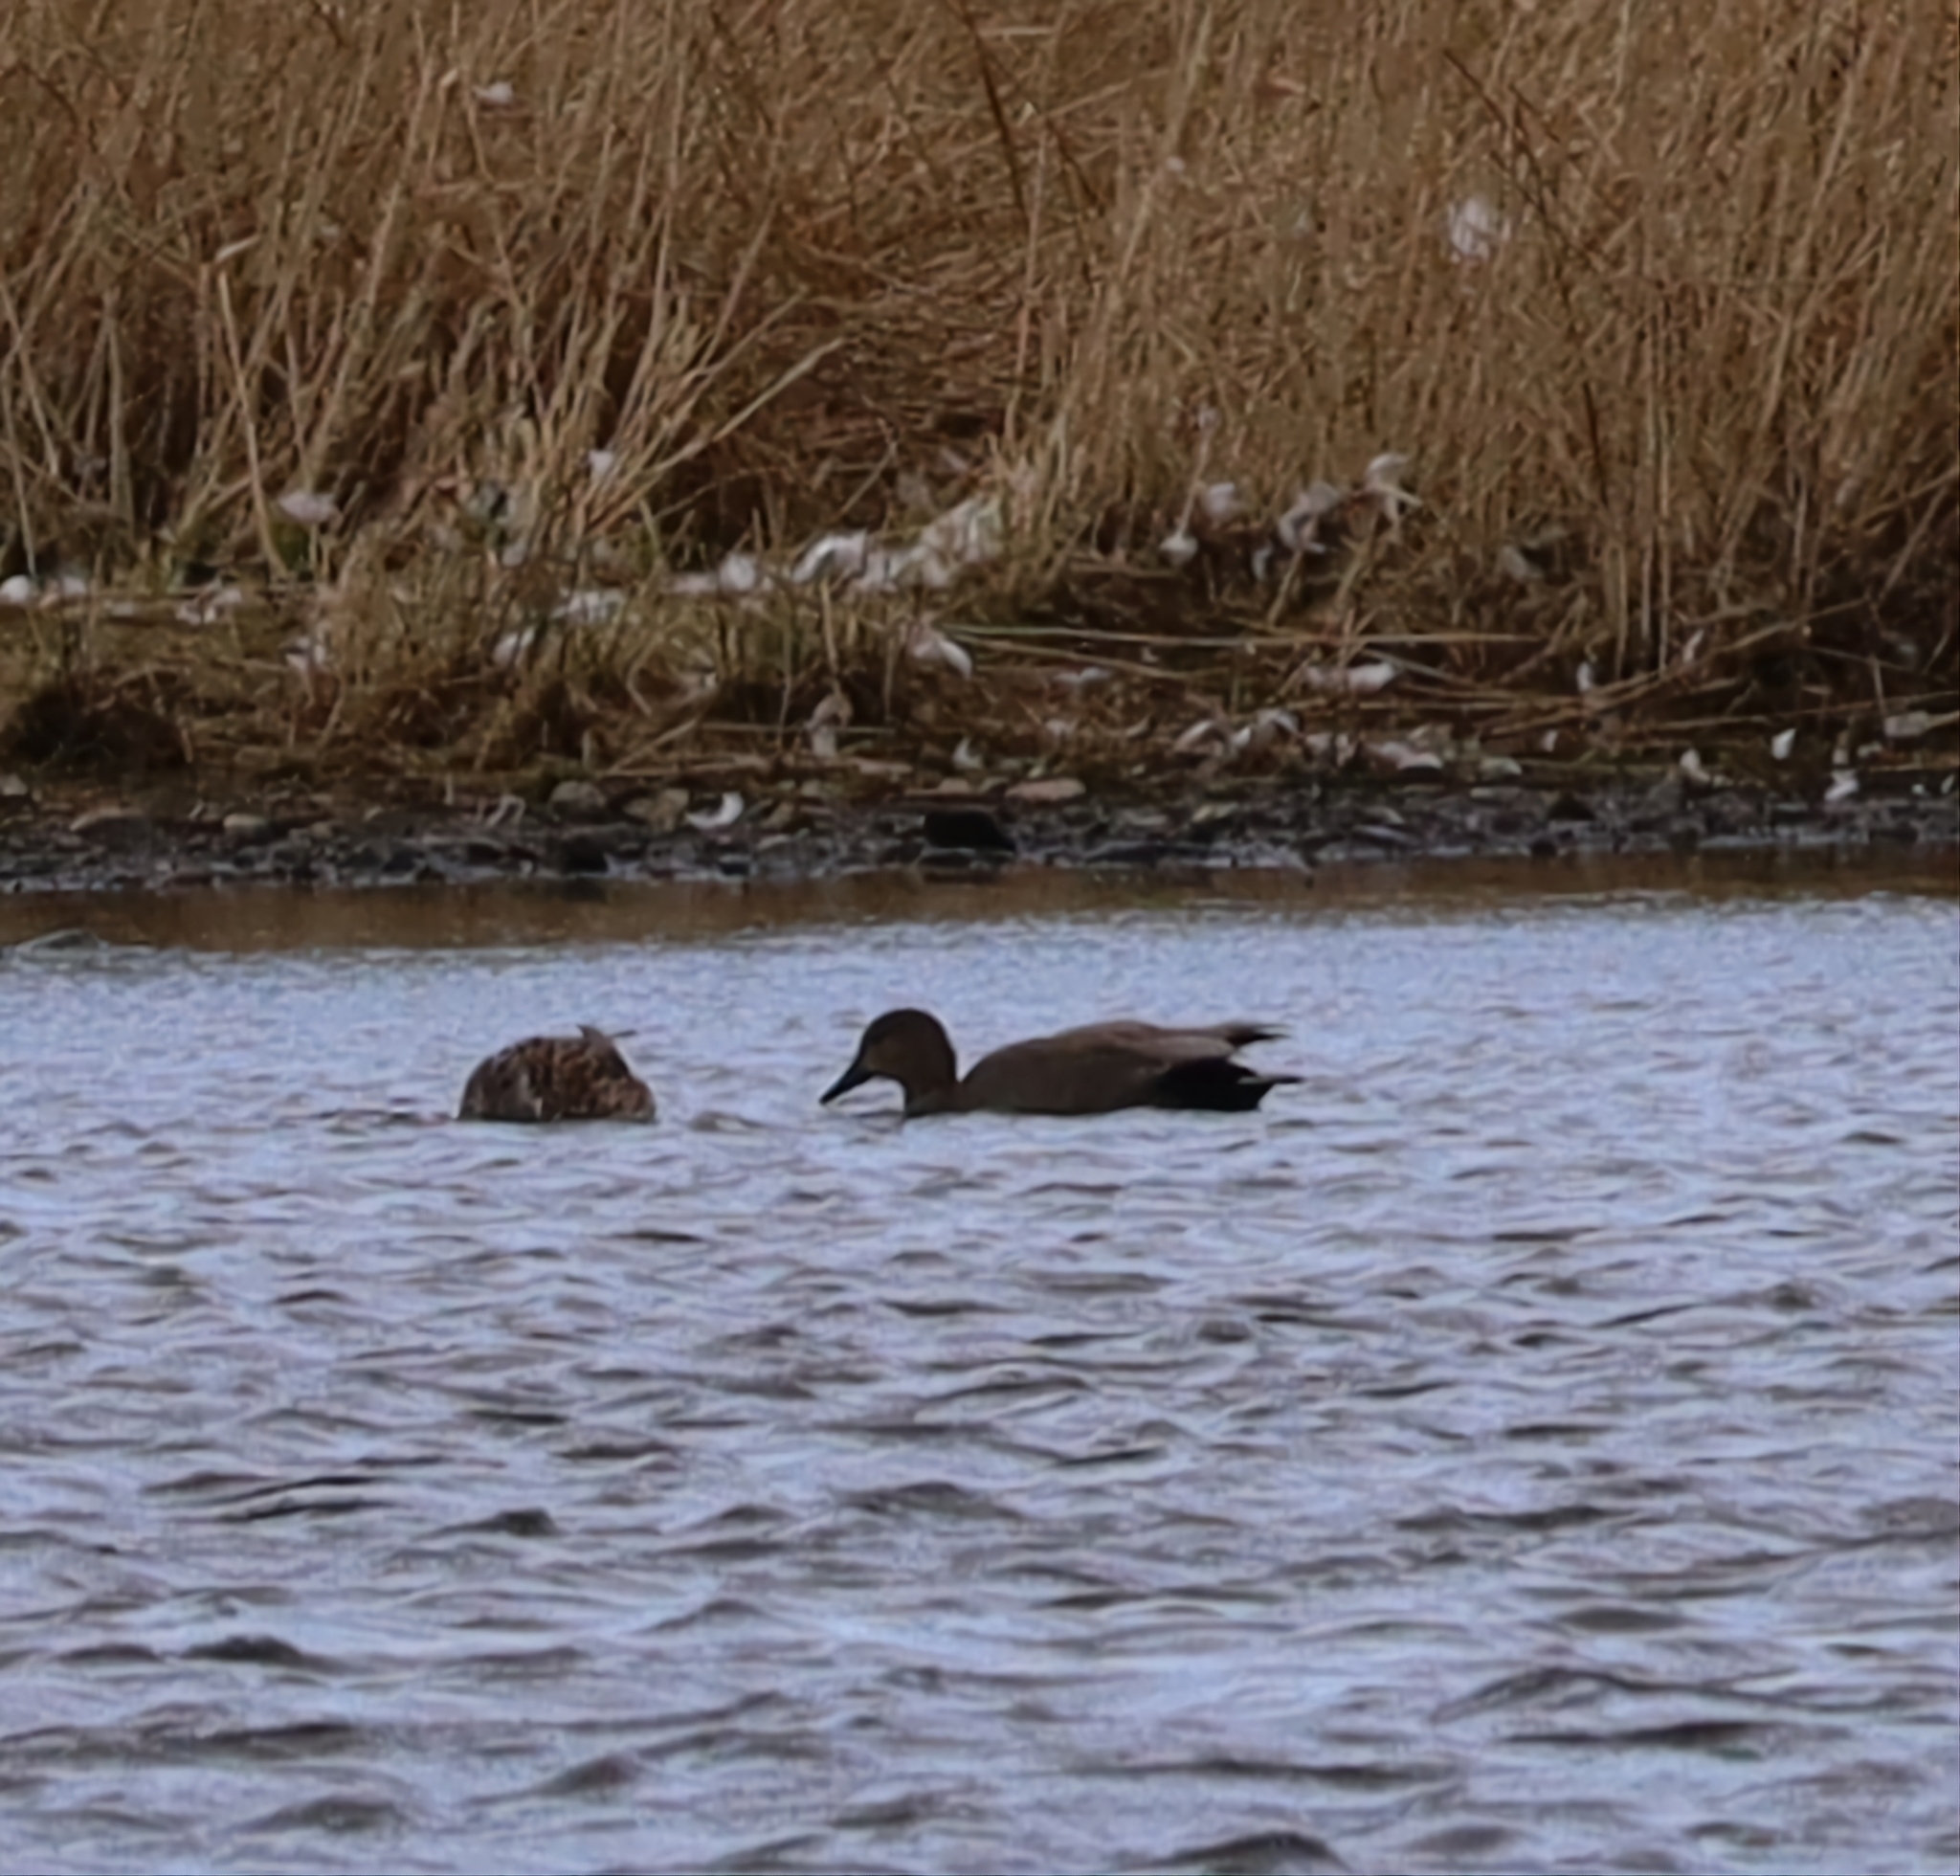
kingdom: Animalia
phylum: Chordata
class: Aves
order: Anseriformes
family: Anatidae
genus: Mareca
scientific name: Mareca strepera
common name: Gadwall
